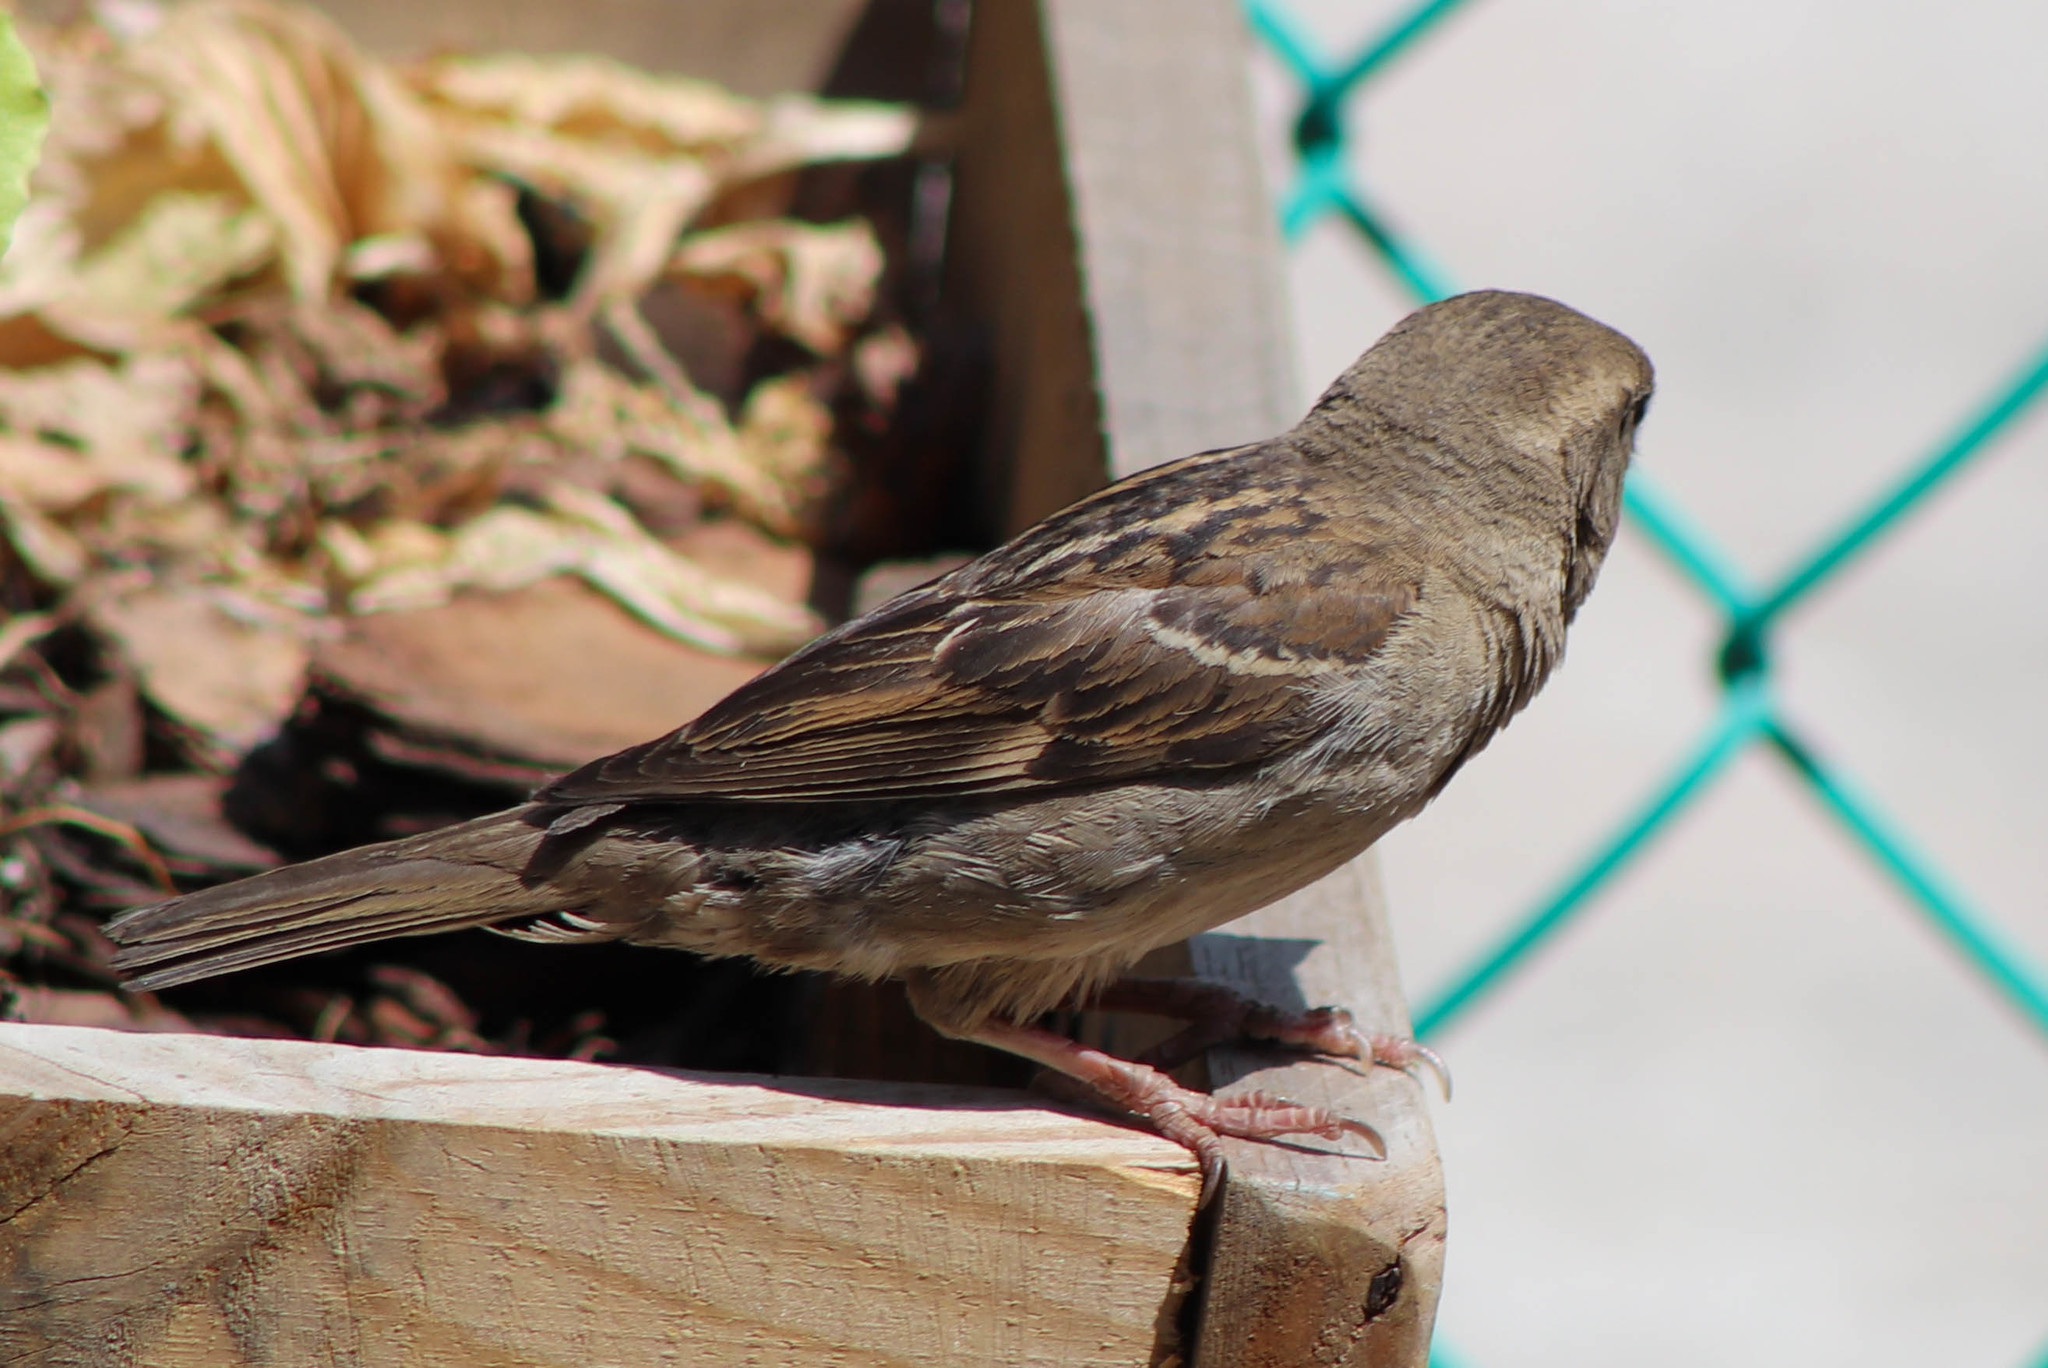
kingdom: Animalia
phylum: Chordata
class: Aves
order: Passeriformes
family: Passeridae
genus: Passer
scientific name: Passer domesticus
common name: House sparrow
